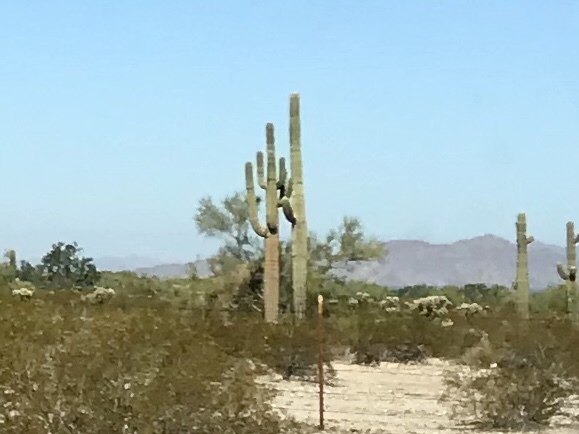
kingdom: Plantae
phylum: Tracheophyta
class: Magnoliopsida
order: Caryophyllales
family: Cactaceae
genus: Carnegiea
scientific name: Carnegiea gigantea
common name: Saguaro
